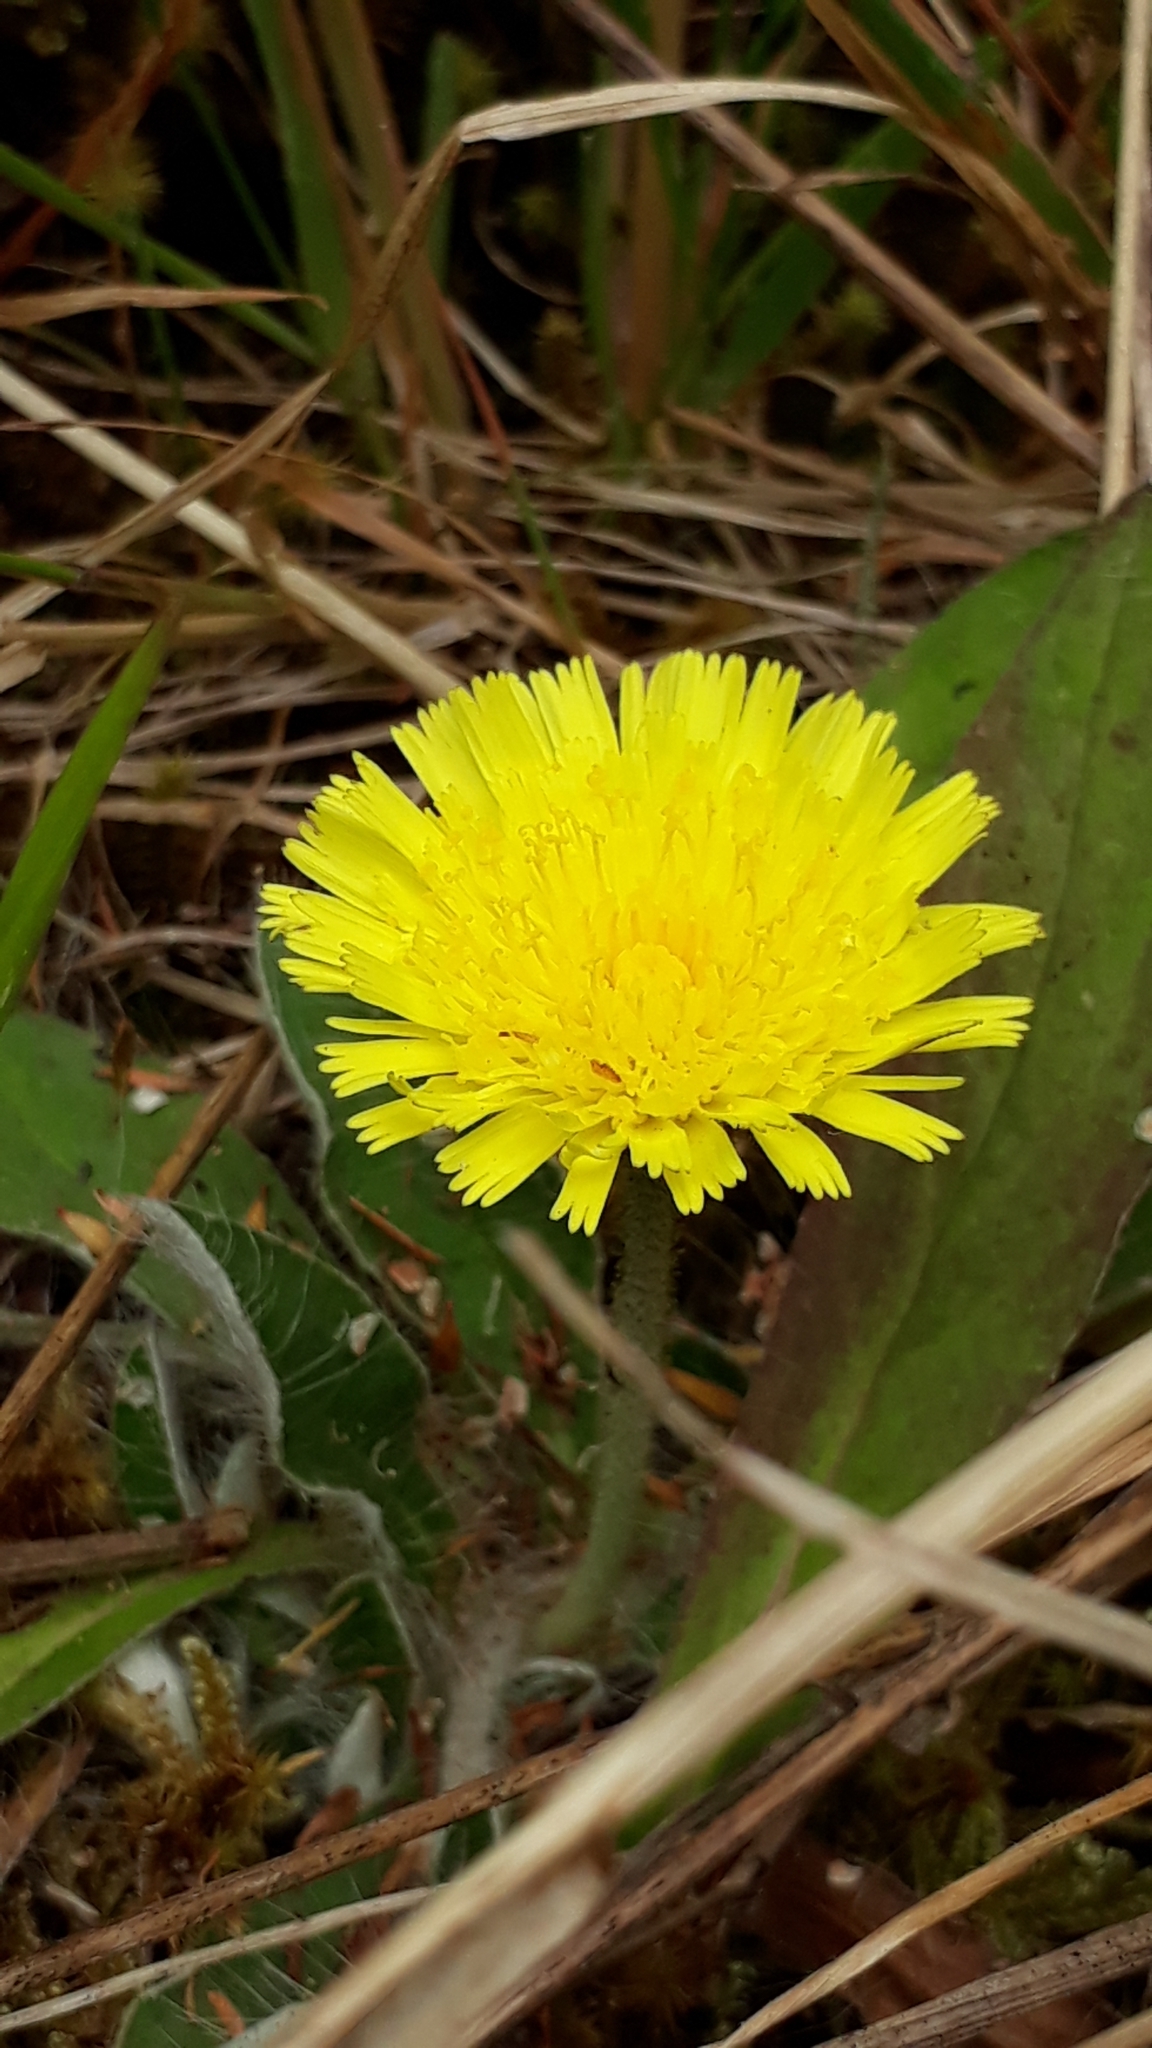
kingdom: Plantae
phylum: Tracheophyta
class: Magnoliopsida
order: Asterales
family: Asteraceae
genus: Pilosella
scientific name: Pilosella officinarum
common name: Mouse-ear hawkweed
